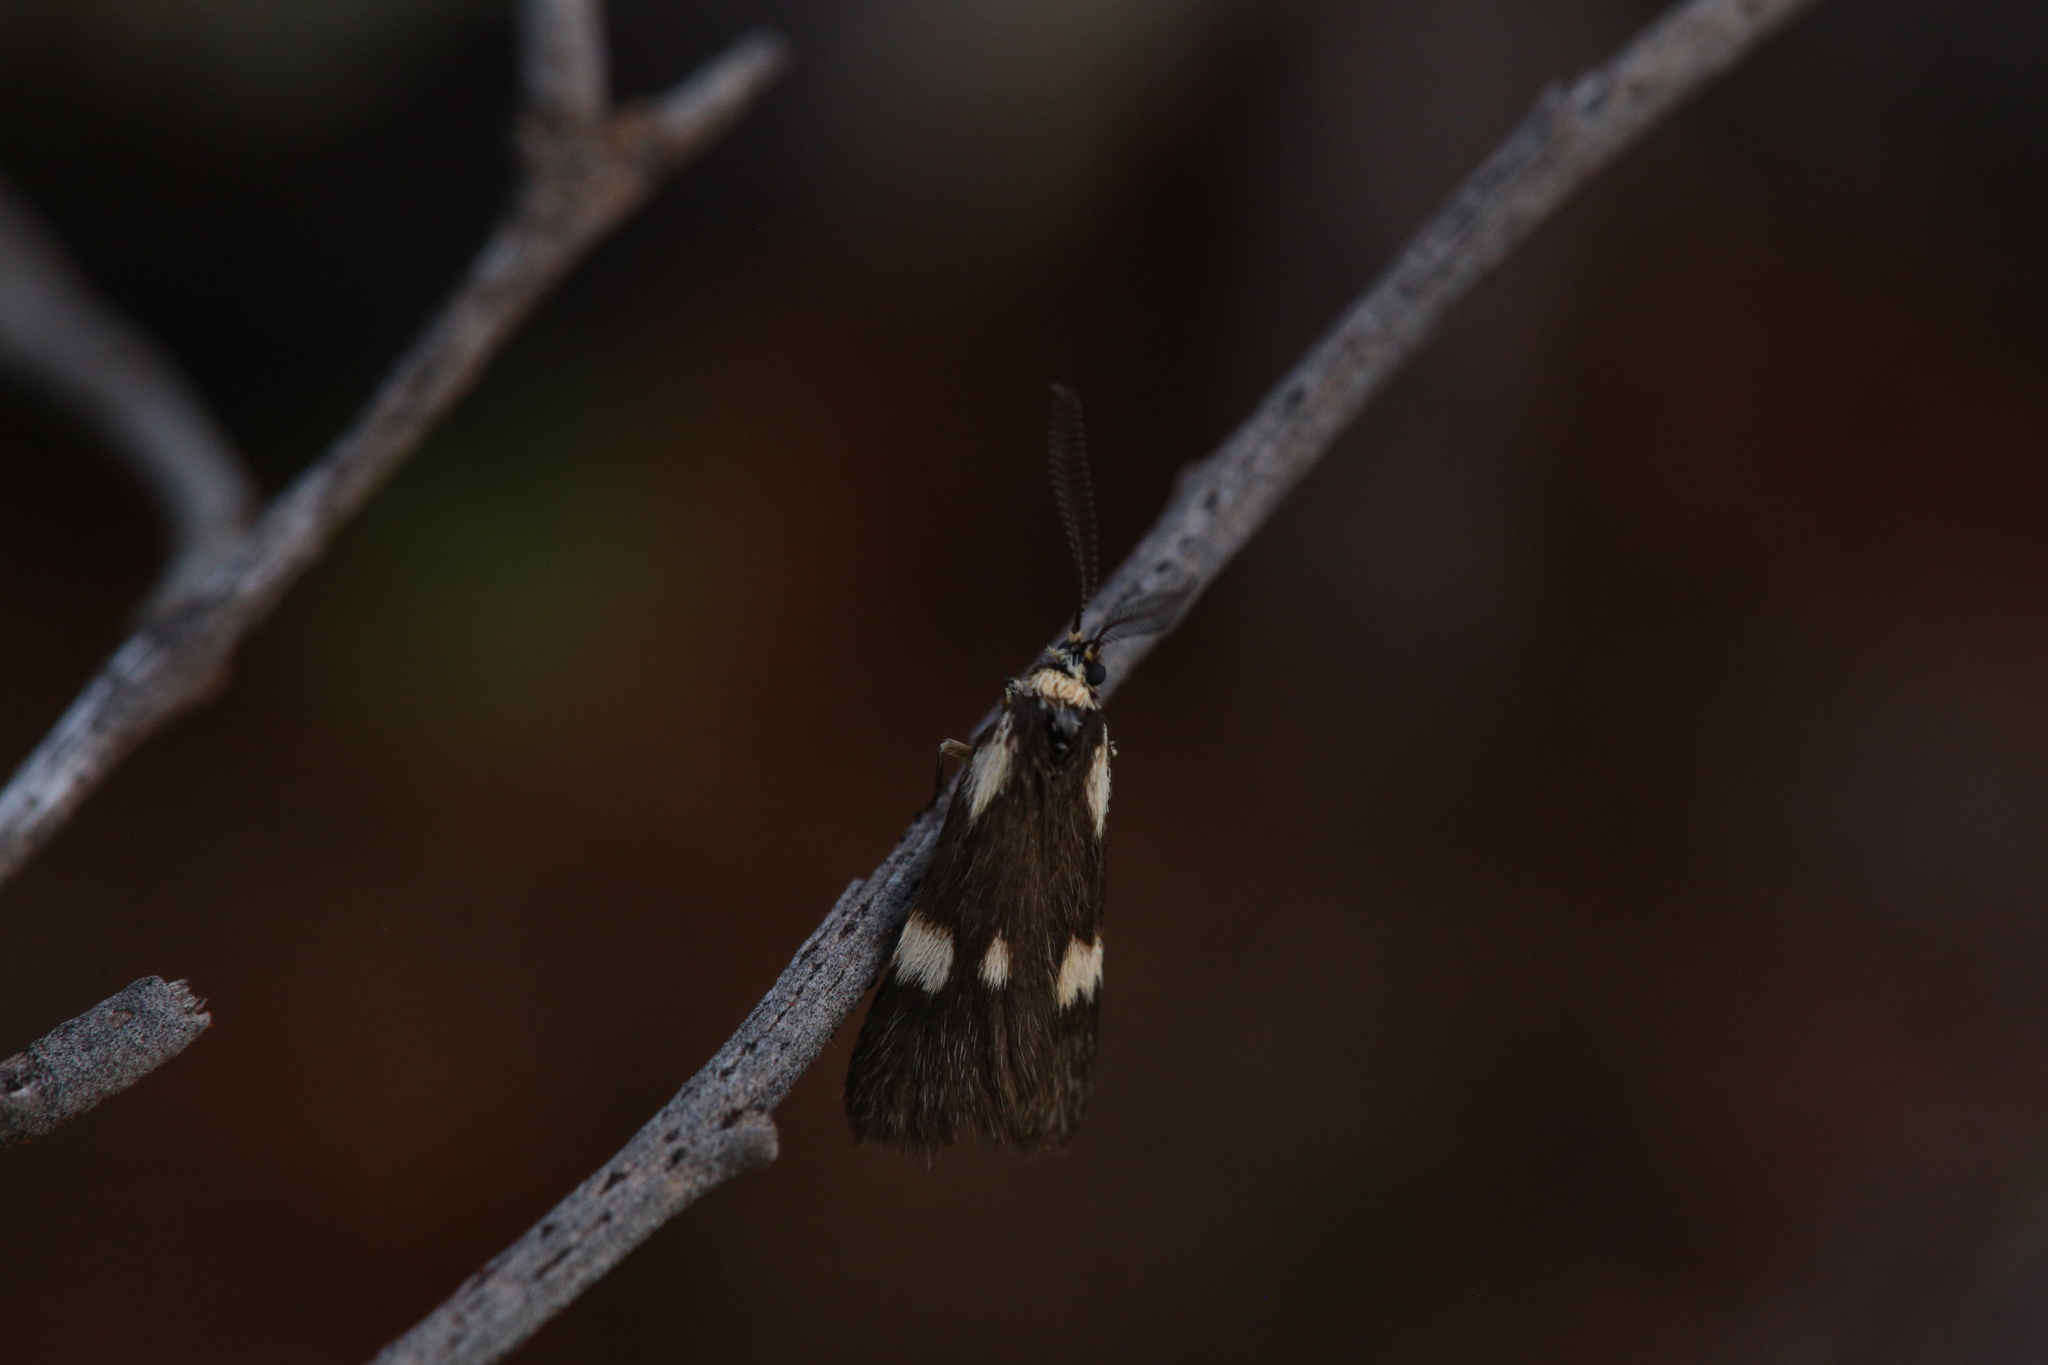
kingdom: Animalia
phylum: Arthropoda
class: Insecta
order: Lepidoptera
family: Erebidae
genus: Poliodule
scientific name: Poliodule melanotricha
